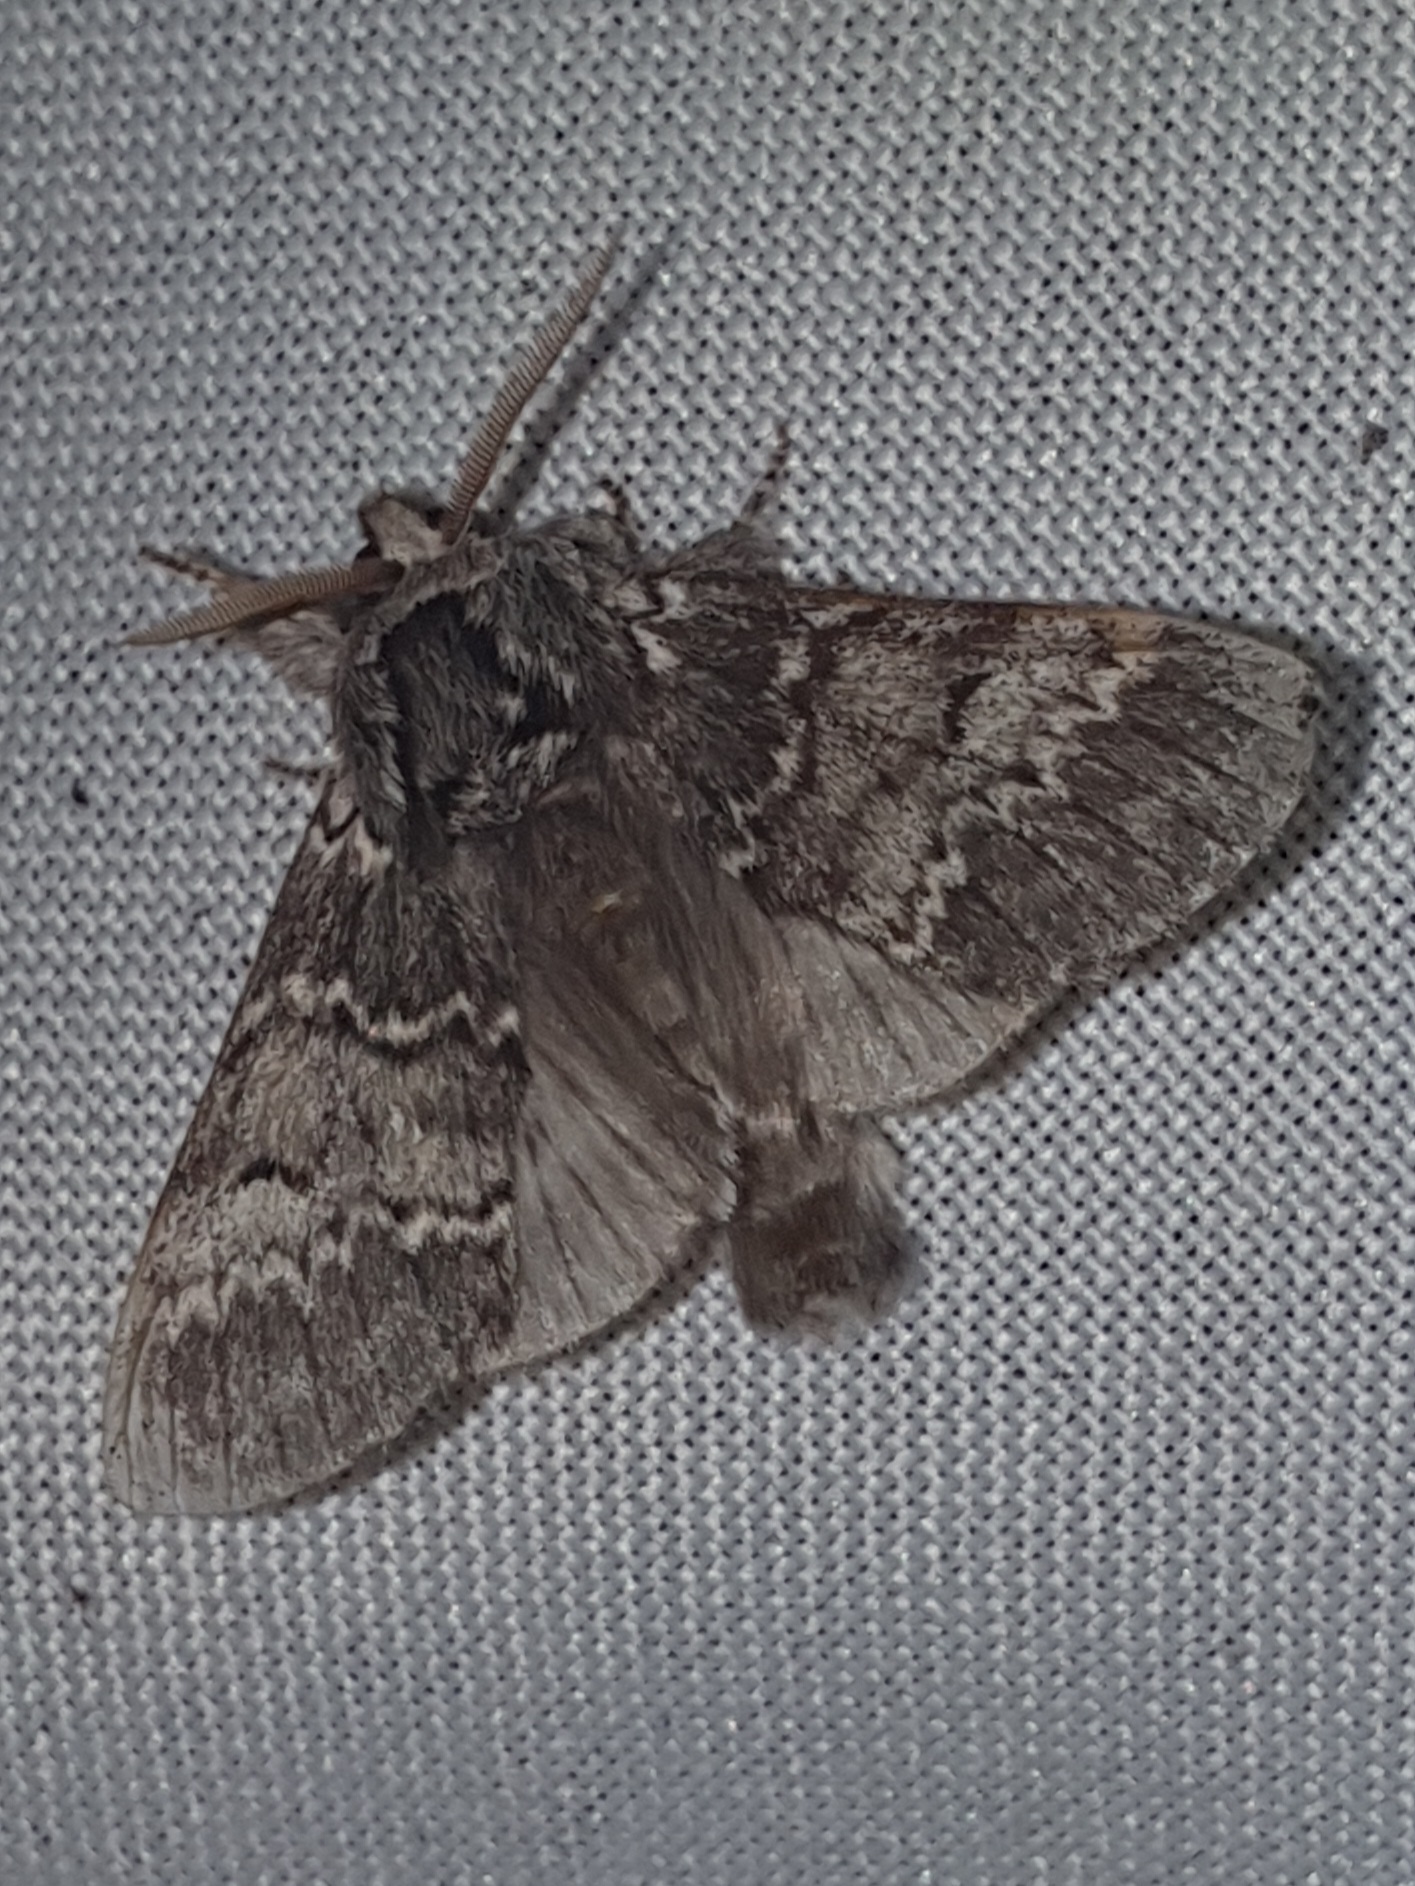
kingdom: Animalia
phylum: Arthropoda
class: Insecta
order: Lepidoptera
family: Notodontidae
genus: Drymonia
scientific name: Drymonia ruficornis
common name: Lunar marbled brown
